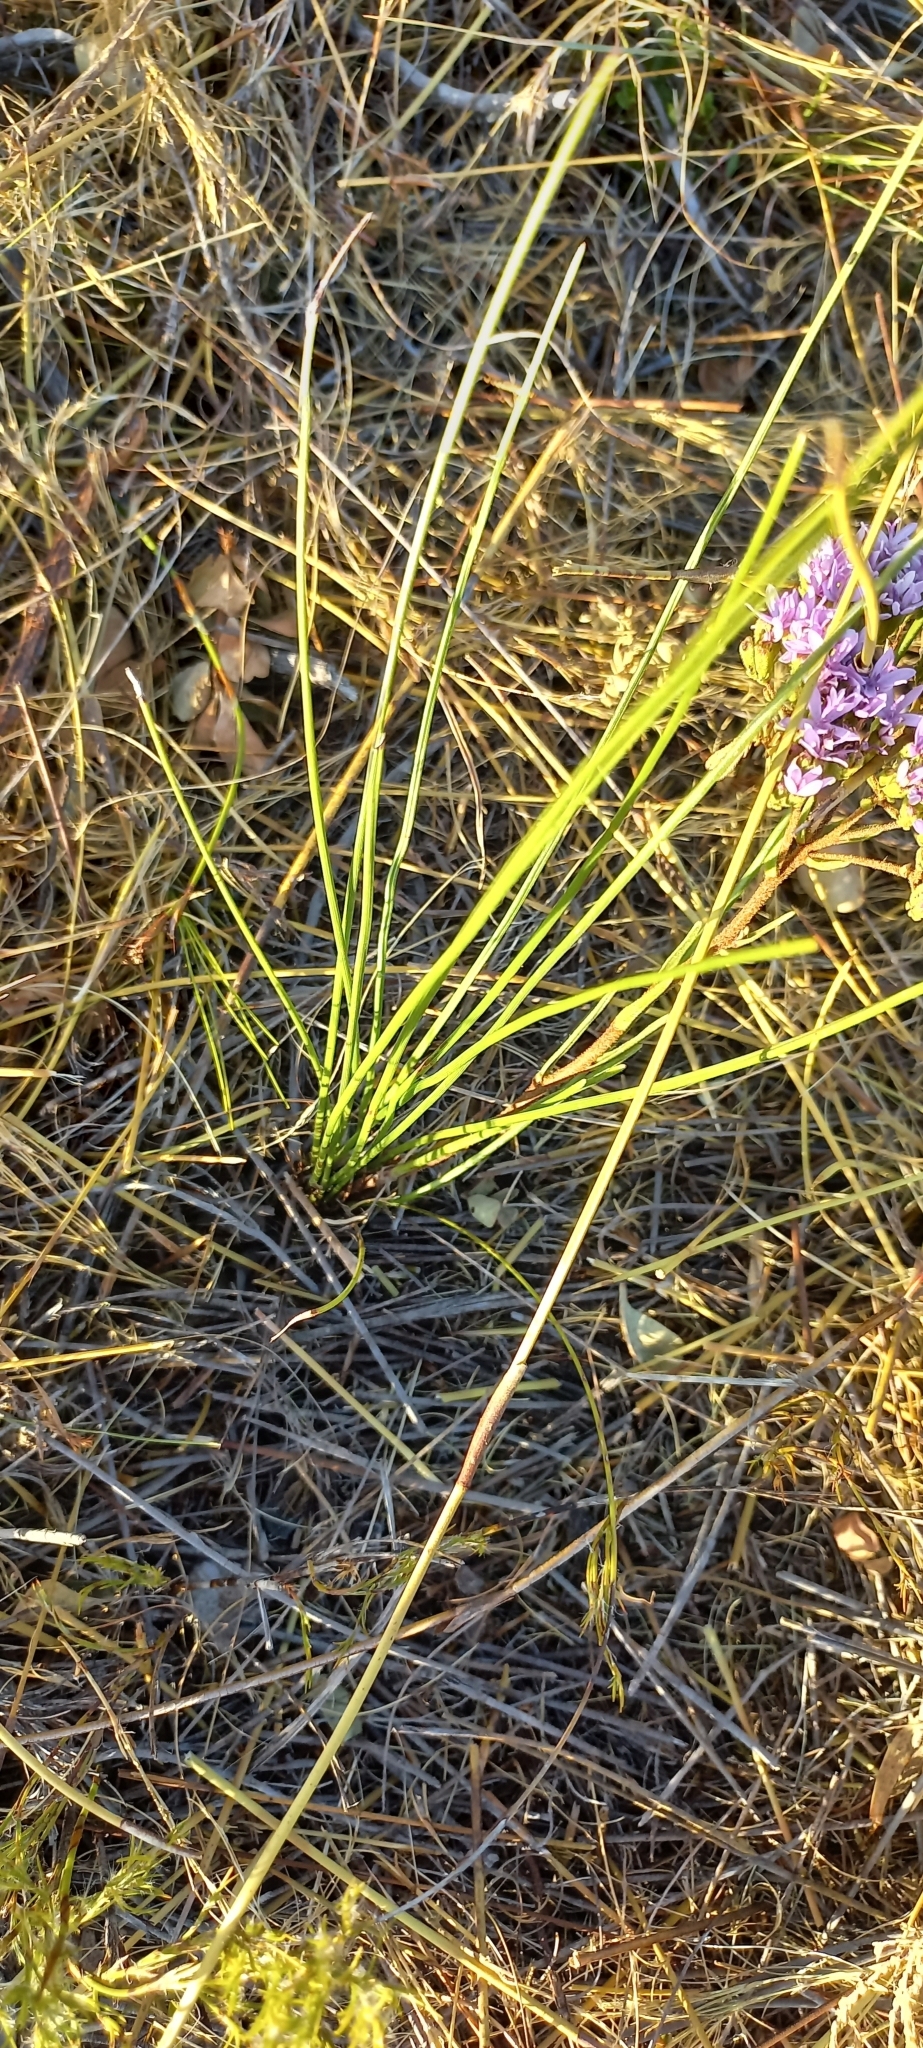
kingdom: Plantae
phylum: Tracheophyta
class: Magnoliopsida
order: Lamiales
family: Scrophulariaceae
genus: Pseudoselago
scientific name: Pseudoselago spuria
